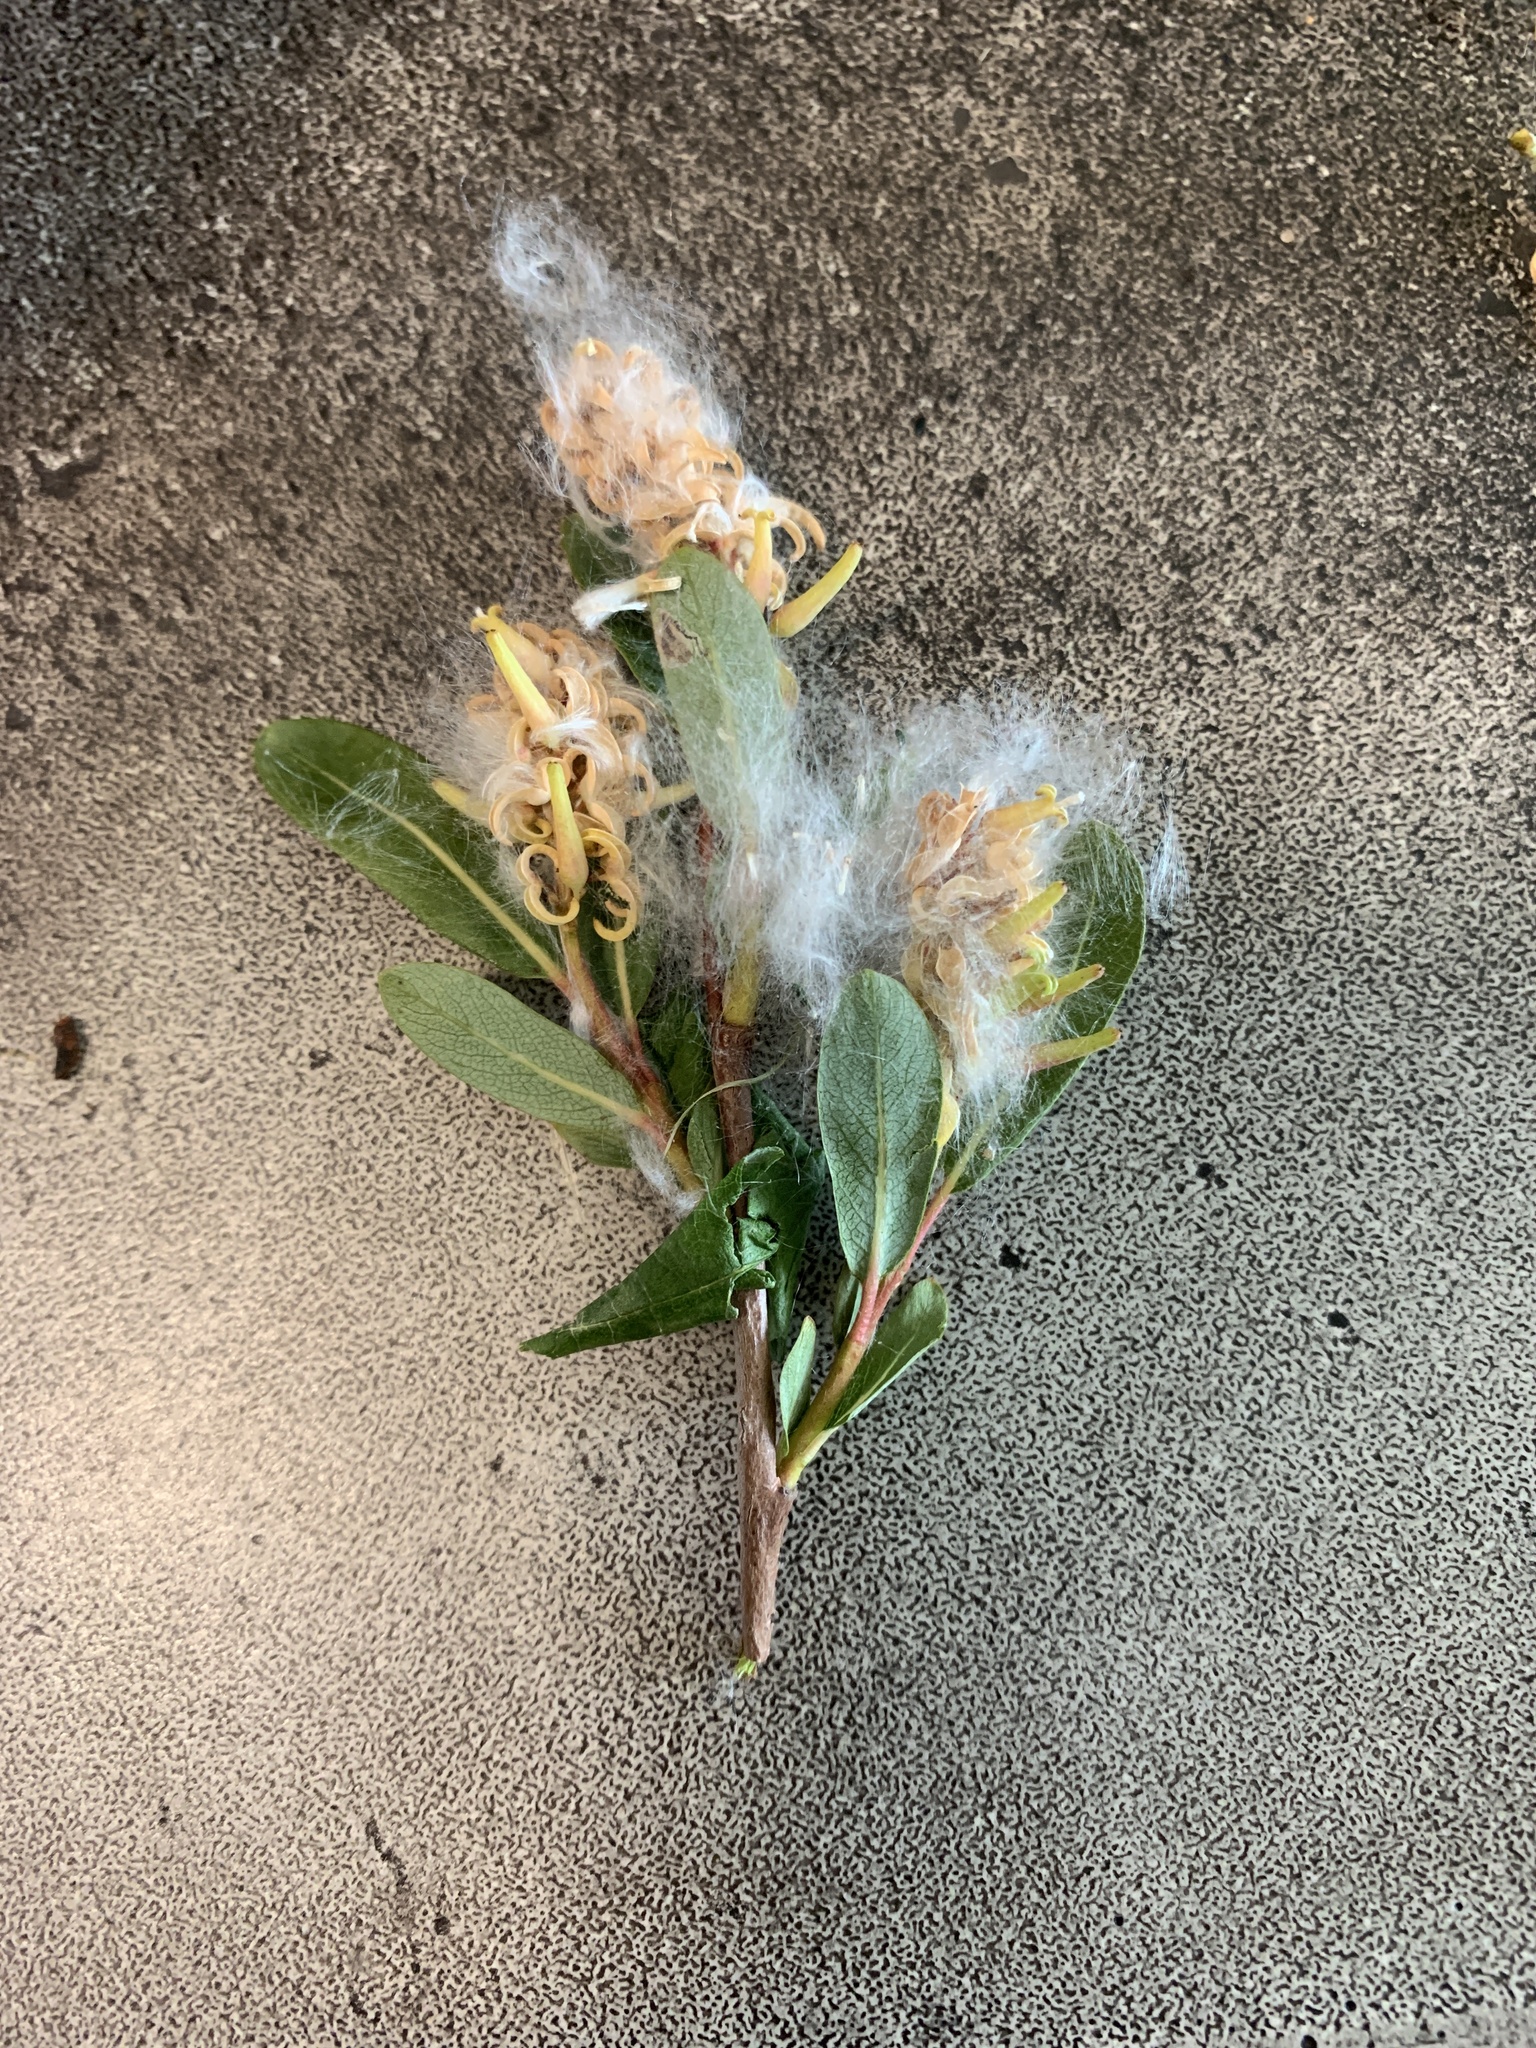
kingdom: Plantae
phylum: Tracheophyta
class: Magnoliopsida
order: Malpighiales
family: Salicaceae
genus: Salix
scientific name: Salix pedicellaris
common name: Bog willow
